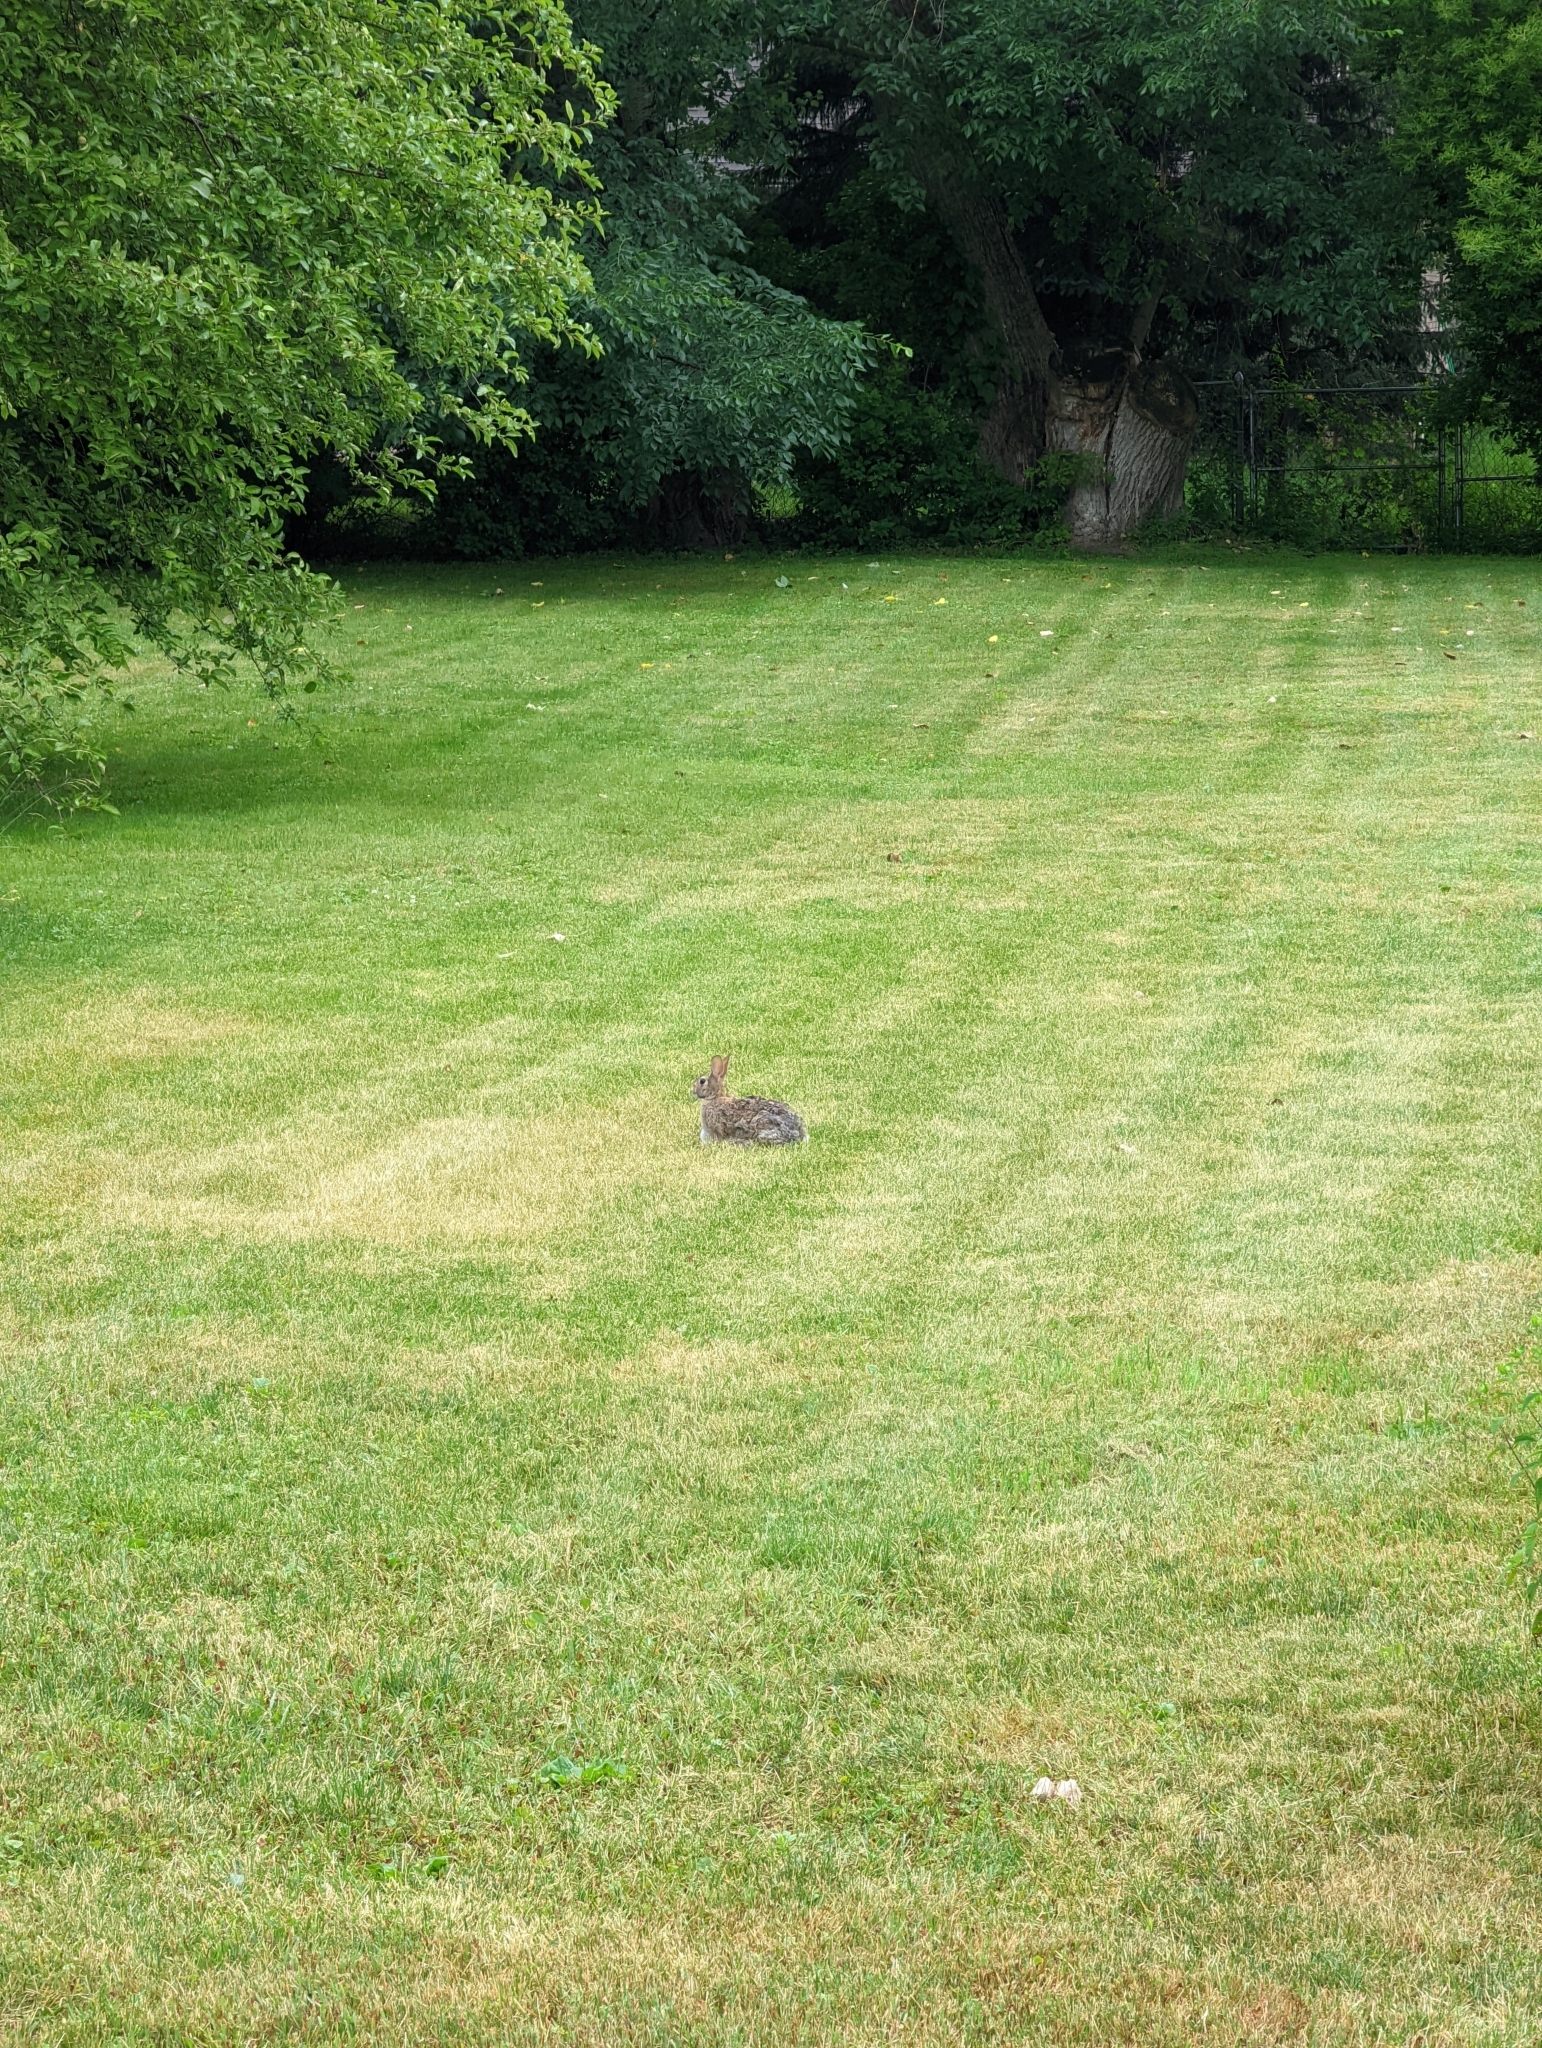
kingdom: Animalia
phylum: Chordata
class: Mammalia
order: Lagomorpha
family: Leporidae
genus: Sylvilagus
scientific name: Sylvilagus floridanus
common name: Eastern cottontail
